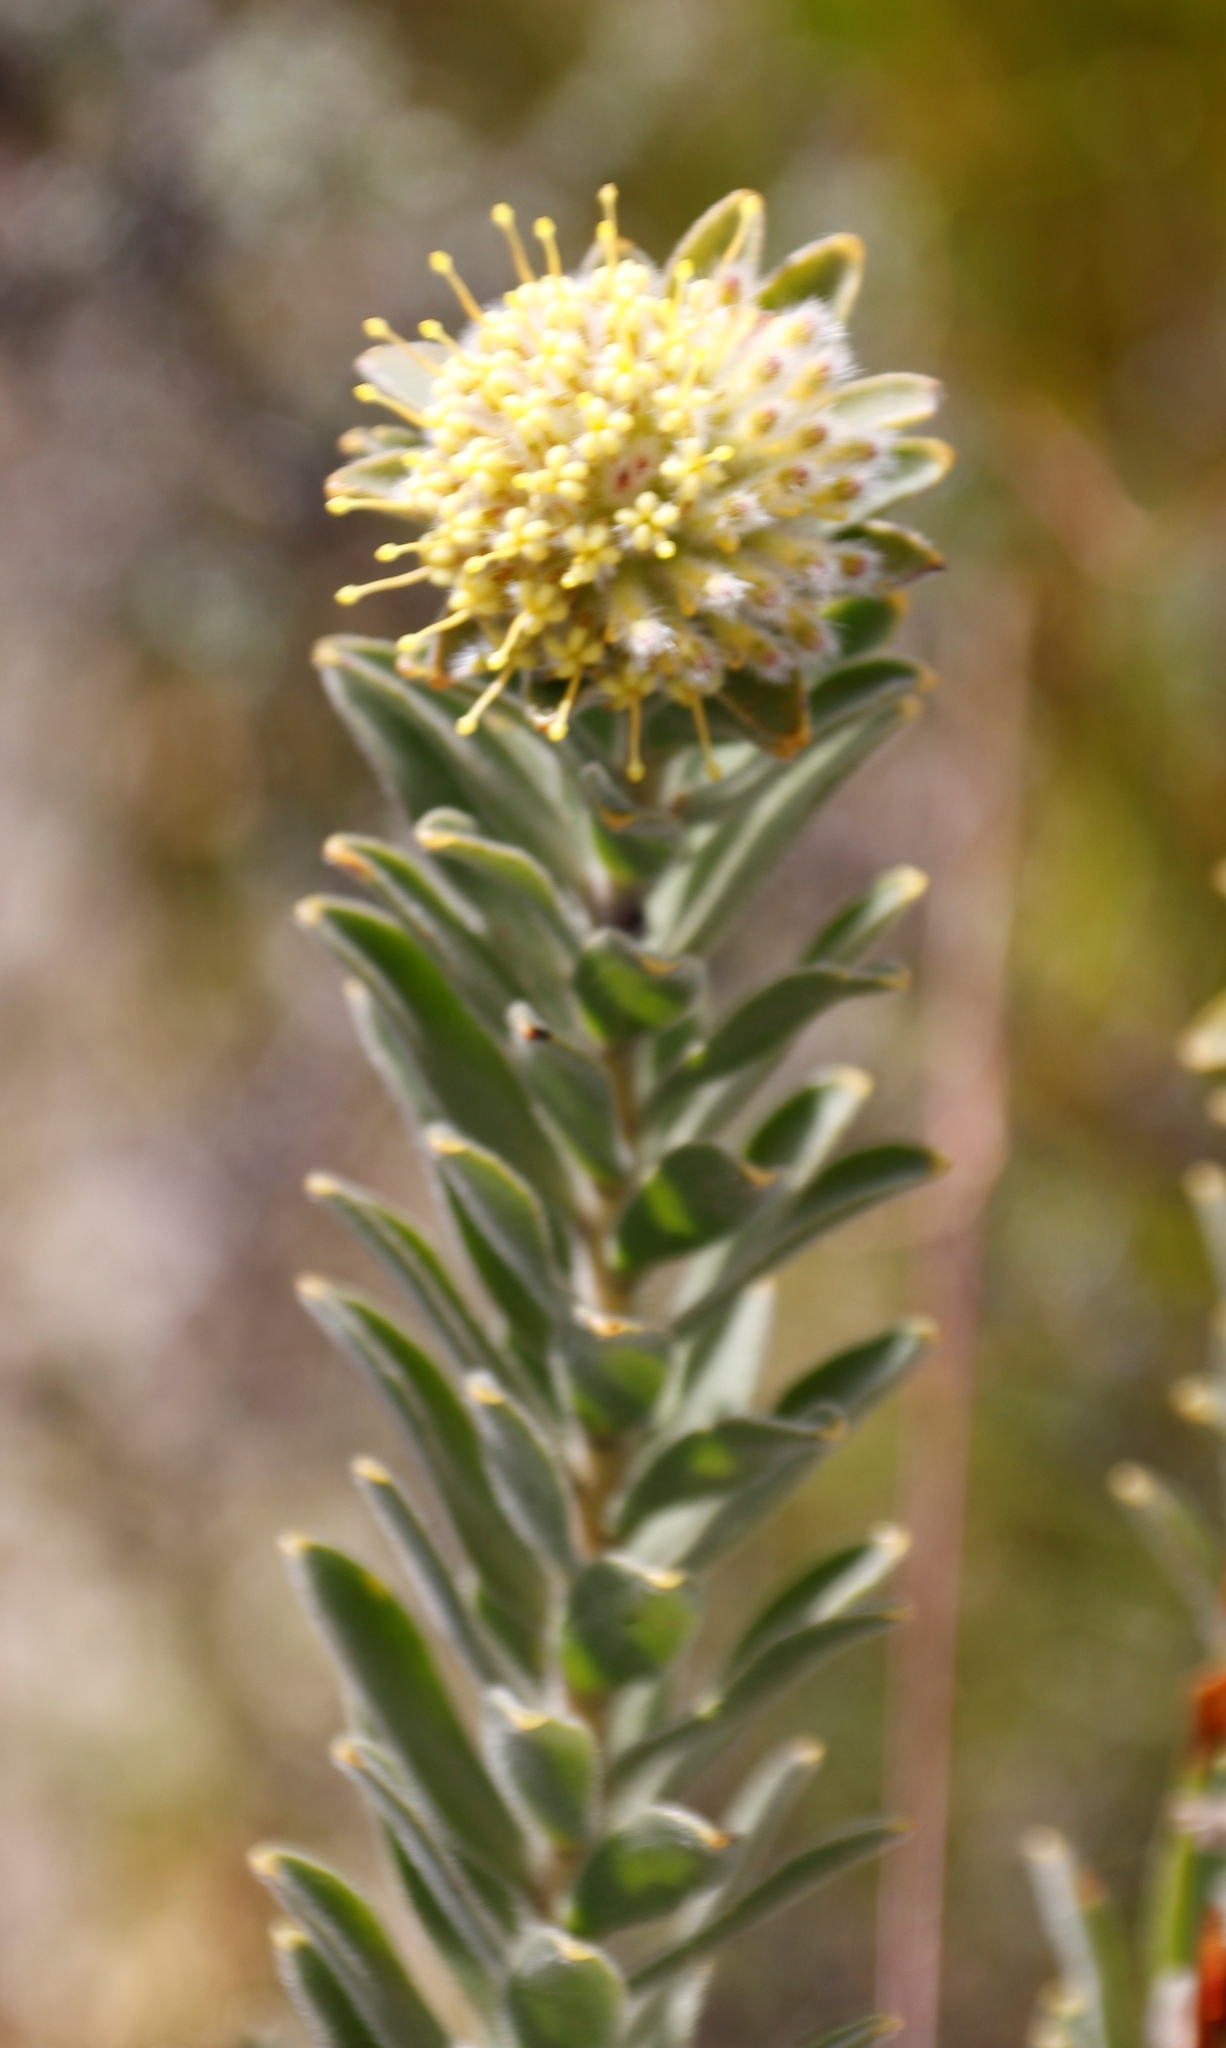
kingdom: Plantae
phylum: Tracheophyta
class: Magnoliopsida
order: Proteales
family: Proteaceae
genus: Leucospermum
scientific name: Leucospermum truncatulum
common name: Oval-leaf pincushion
